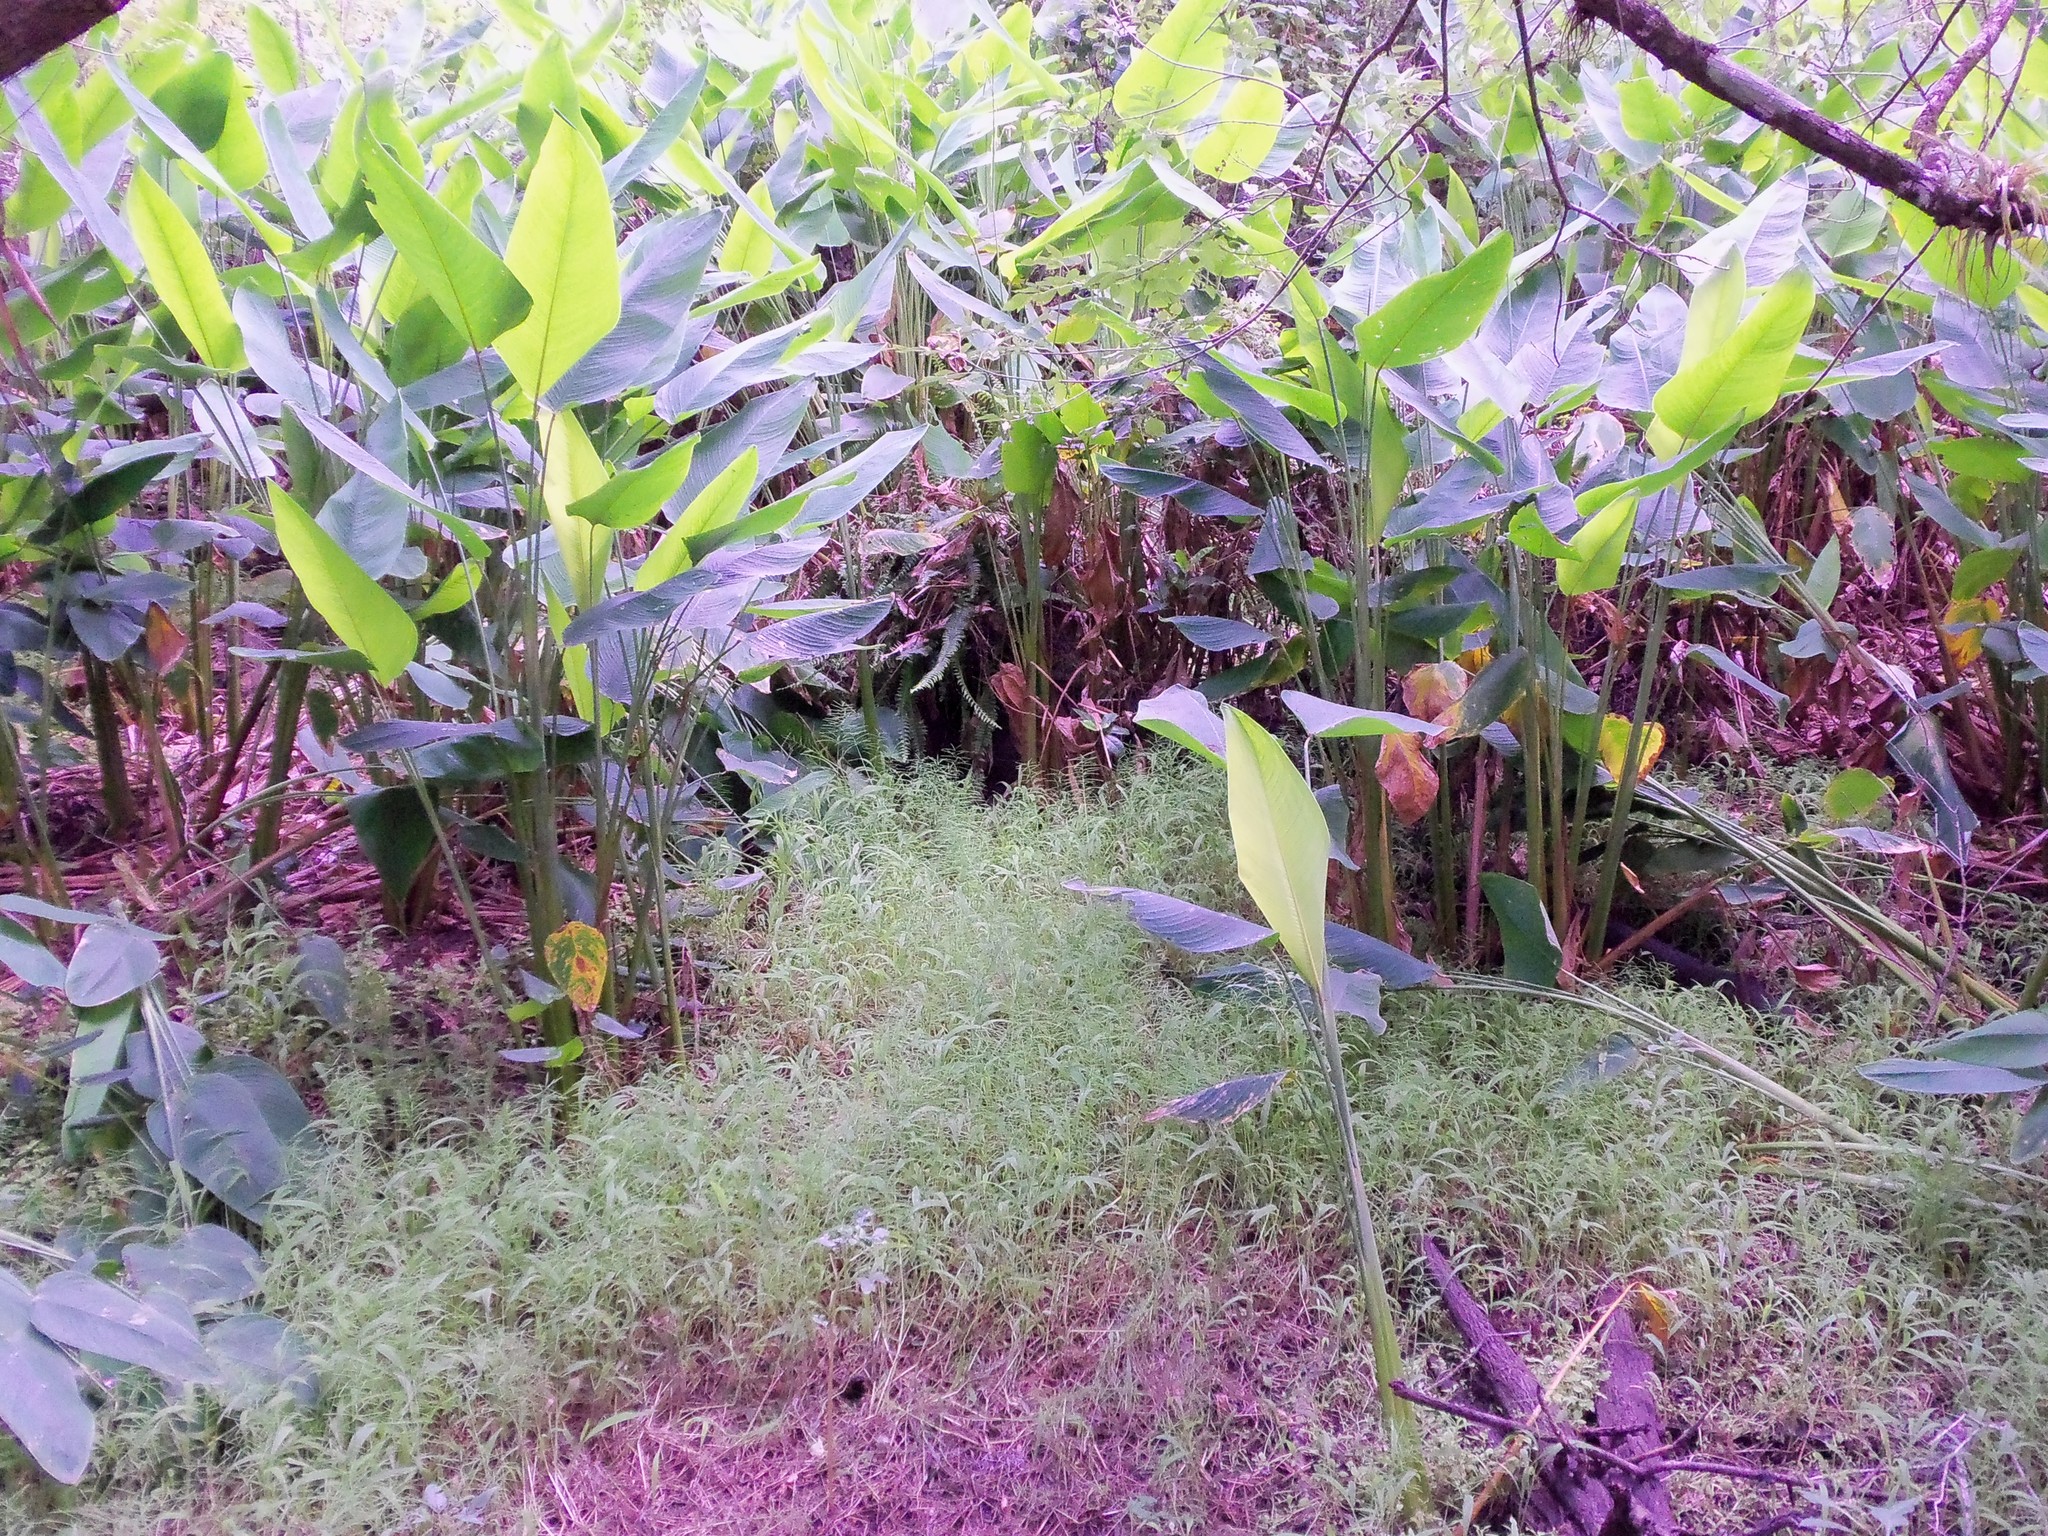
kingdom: Plantae
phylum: Tracheophyta
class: Liliopsida
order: Zingiberales
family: Marantaceae
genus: Thalia
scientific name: Thalia geniculata
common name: Arrowroot
